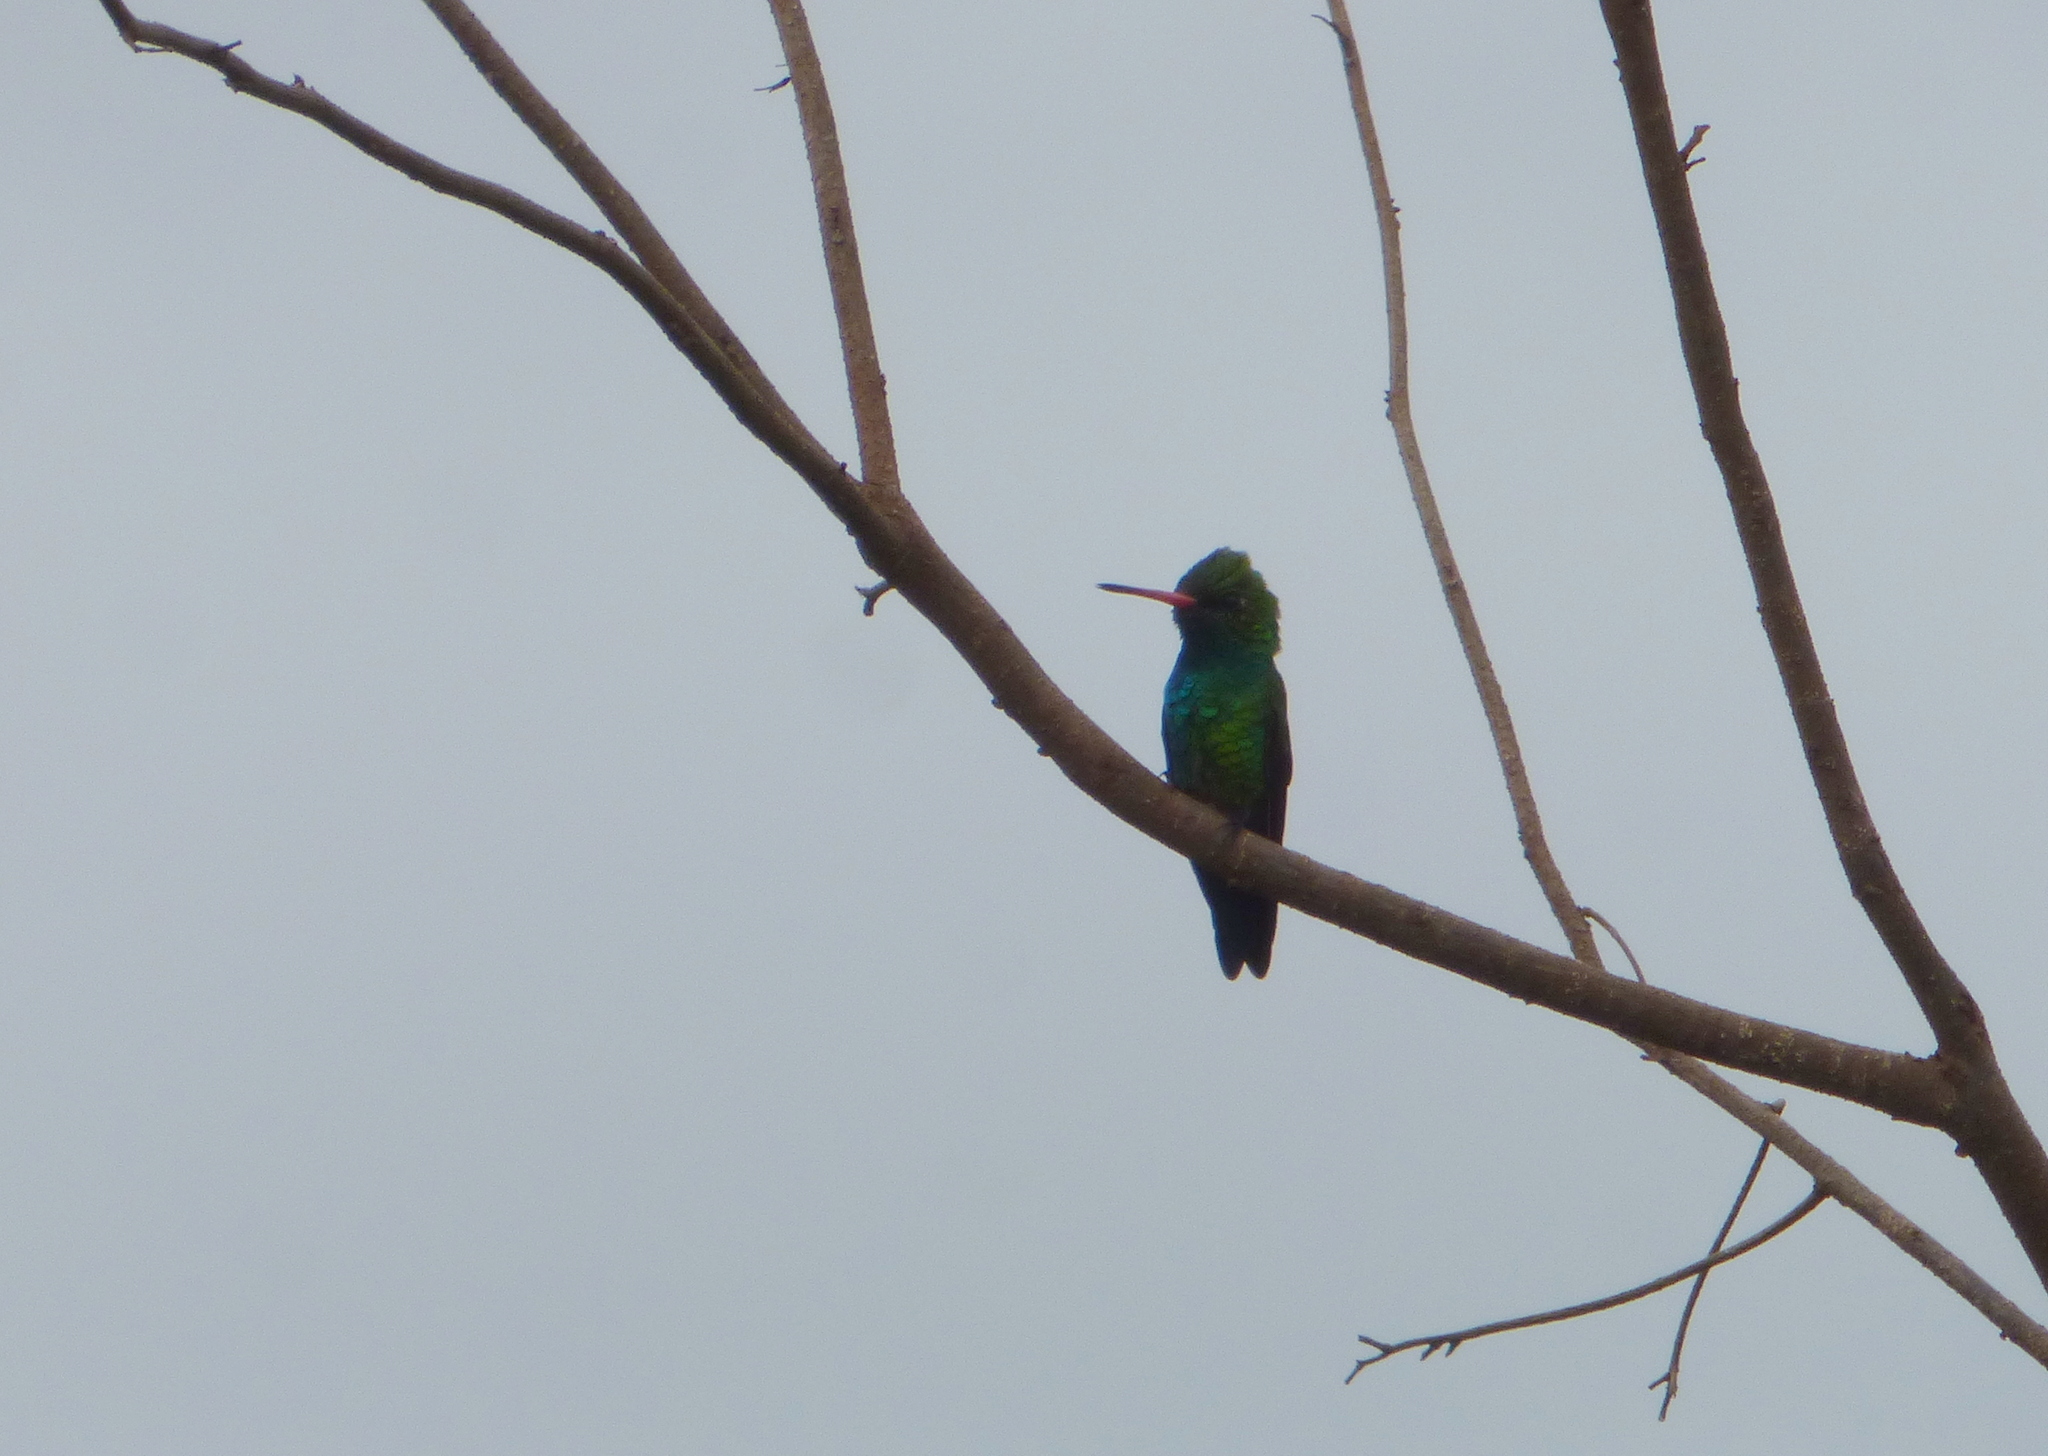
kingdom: Animalia
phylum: Chordata
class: Aves
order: Apodiformes
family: Trochilidae
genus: Chlorostilbon
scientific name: Chlorostilbon lucidus
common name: Glittering-bellied emerald
